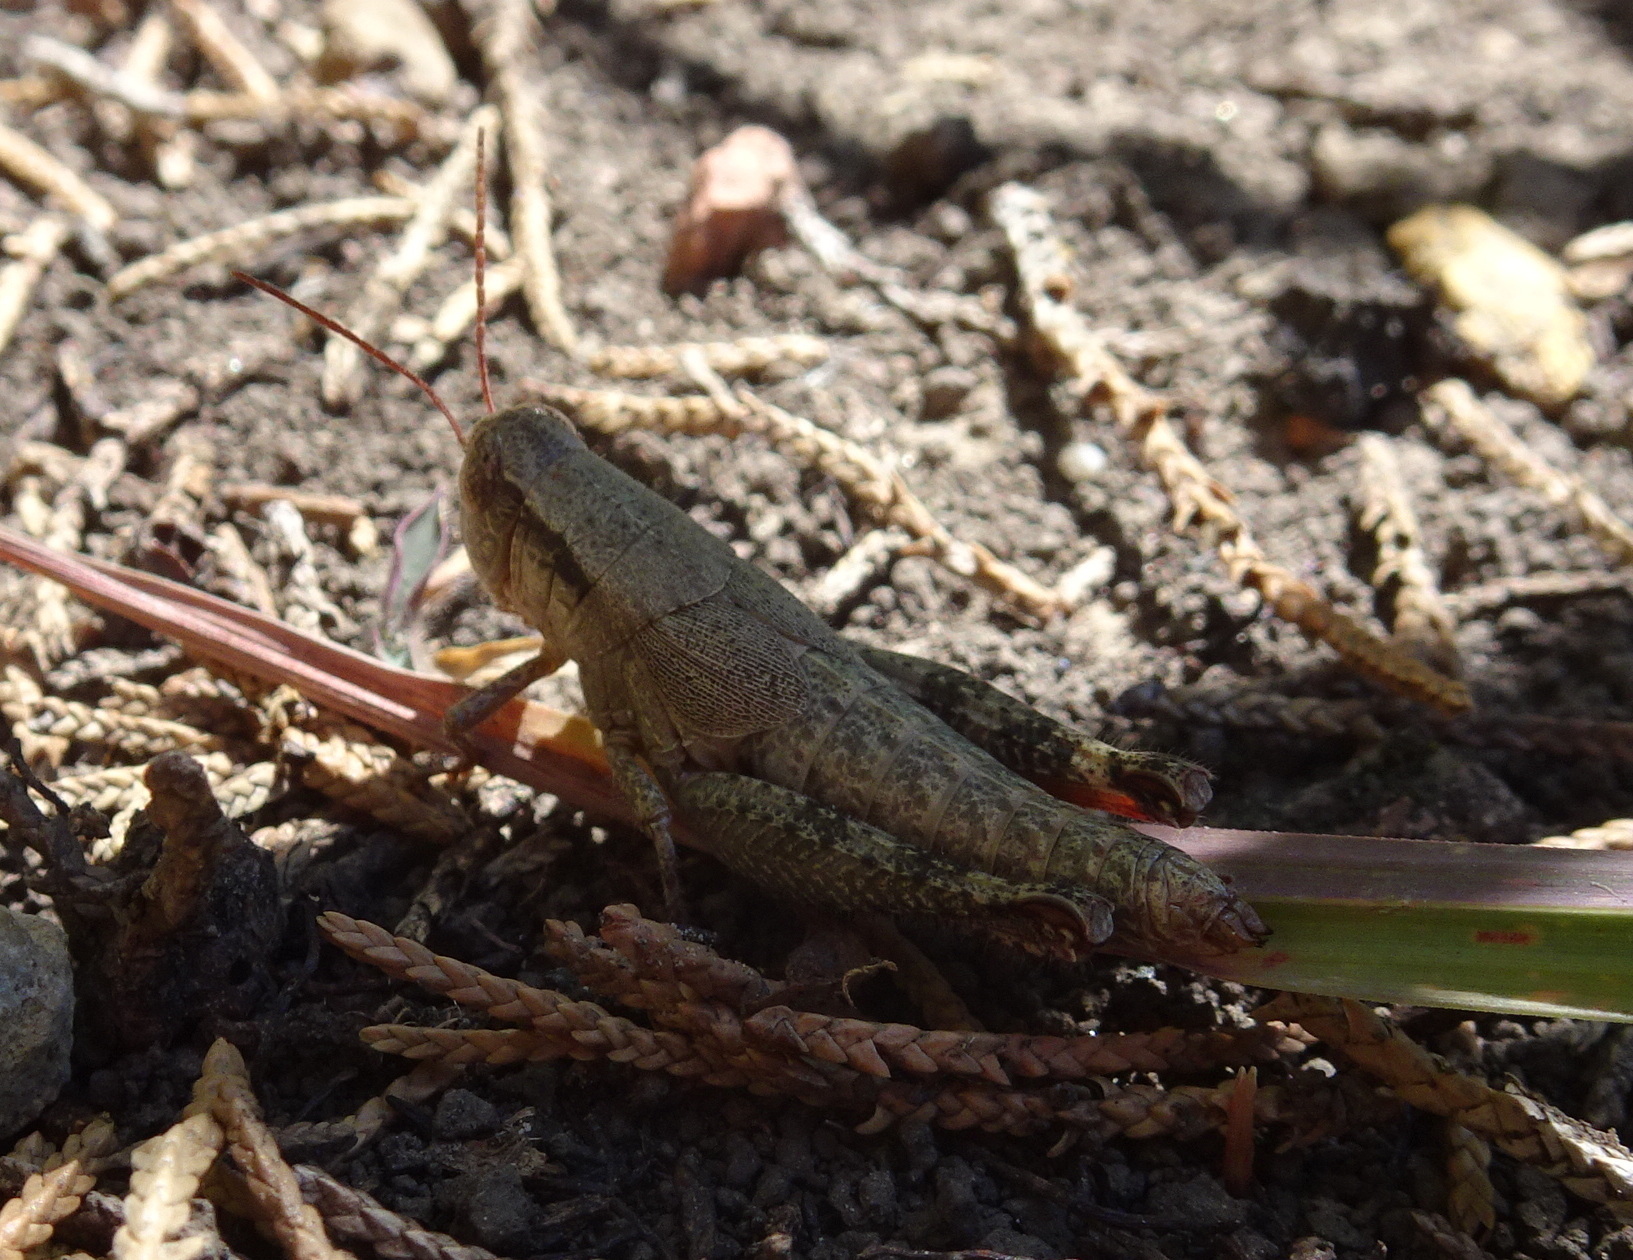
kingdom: Animalia
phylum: Arthropoda
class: Insecta
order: Orthoptera
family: Acrididae
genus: Melanoplus
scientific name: Melanoplus scudderi
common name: Scudder's short-winged locust
